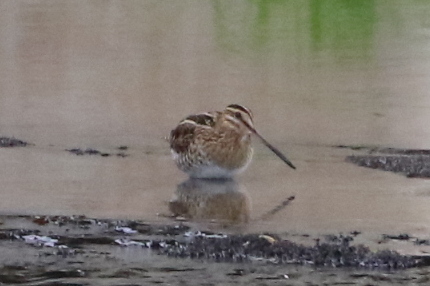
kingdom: Animalia
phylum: Chordata
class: Aves
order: Charadriiformes
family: Scolopacidae
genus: Gallinago
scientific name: Gallinago delicata
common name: Wilson's snipe
